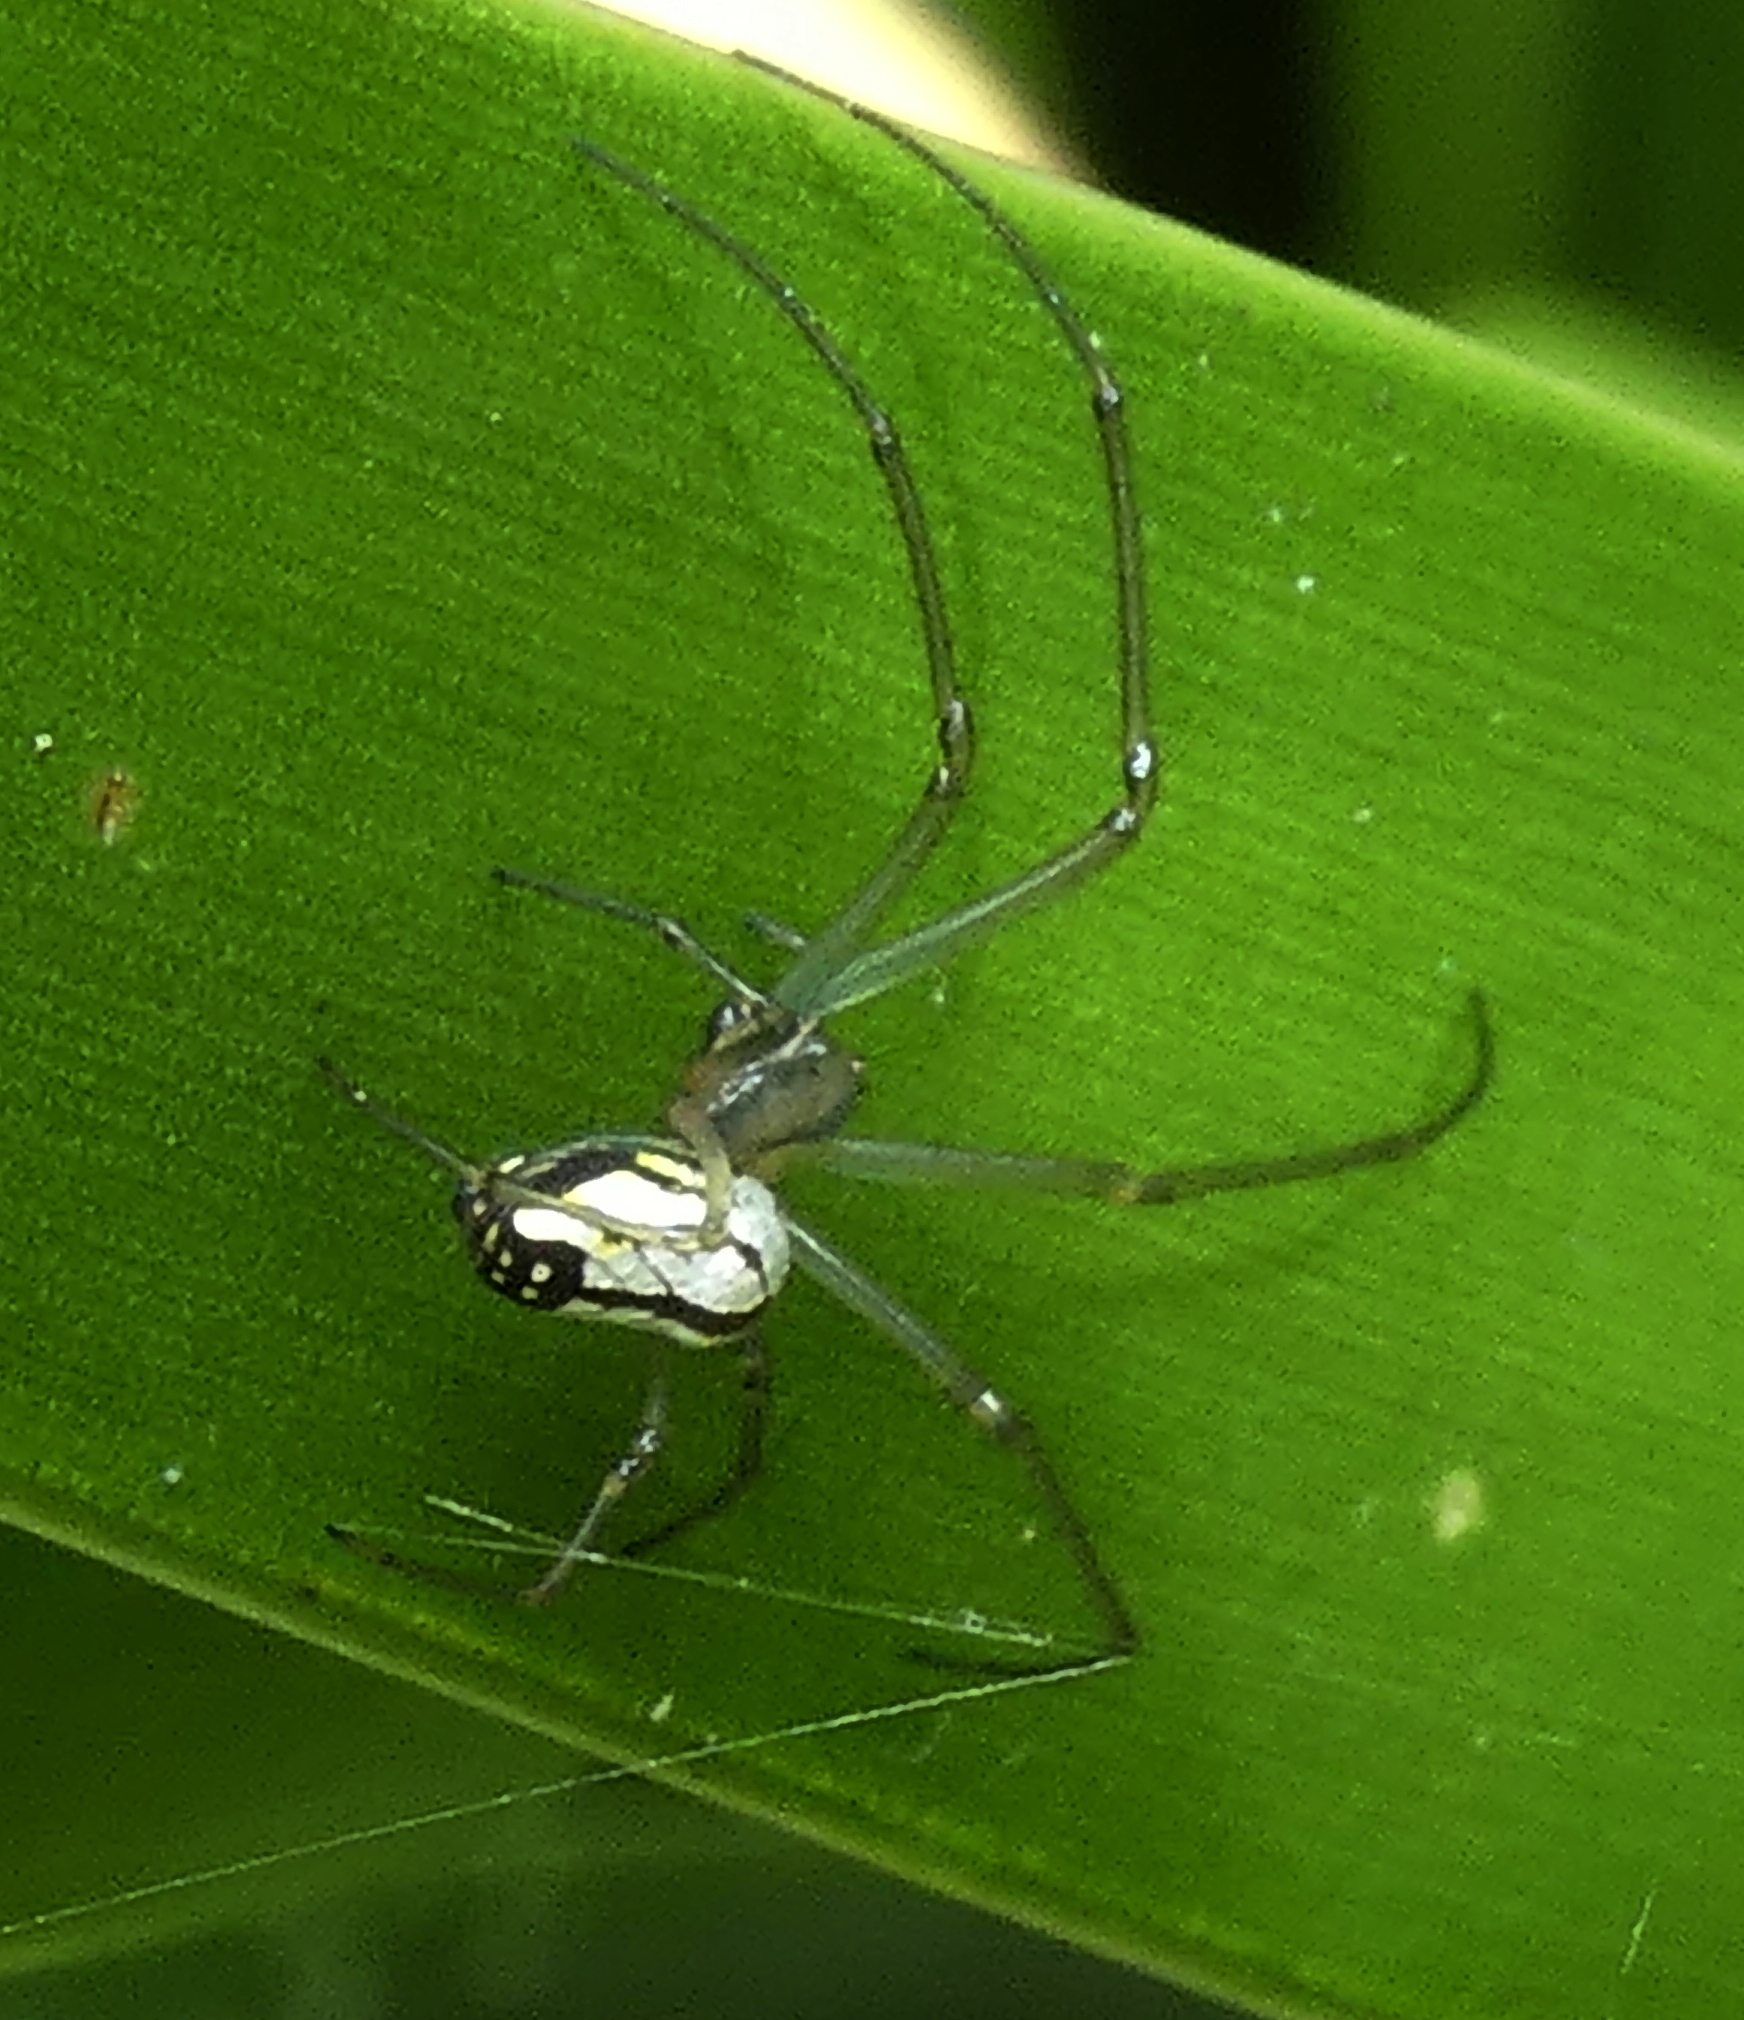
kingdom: Animalia
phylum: Arthropoda
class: Arachnida
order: Araneae
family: Tetragnathidae
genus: Leucauge
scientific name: Leucauge volupis
